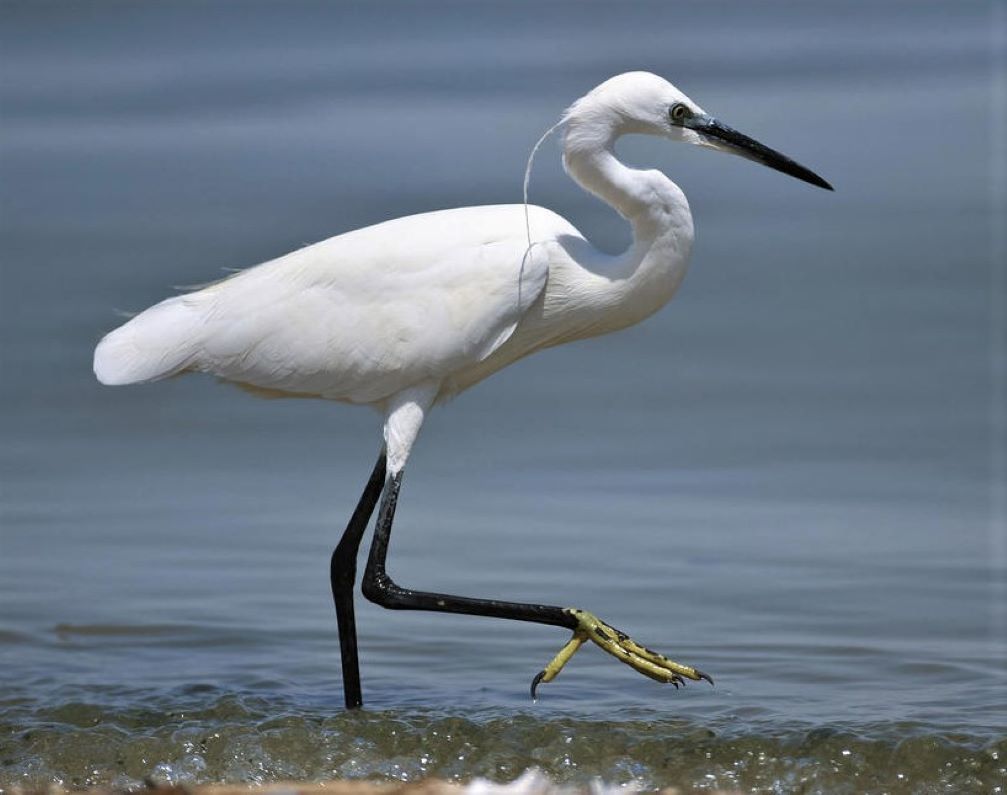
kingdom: Animalia
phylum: Chordata
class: Aves
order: Pelecaniformes
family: Ardeidae
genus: Egretta
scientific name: Egretta garzetta
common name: Little egret
